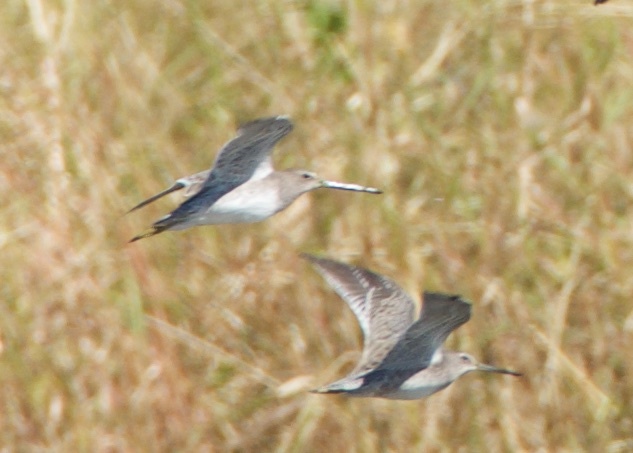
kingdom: Animalia
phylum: Chordata
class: Aves
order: Charadriiformes
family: Scolopacidae
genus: Limnodromus
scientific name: Limnodromus scolopaceus
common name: Long-billed dowitcher
